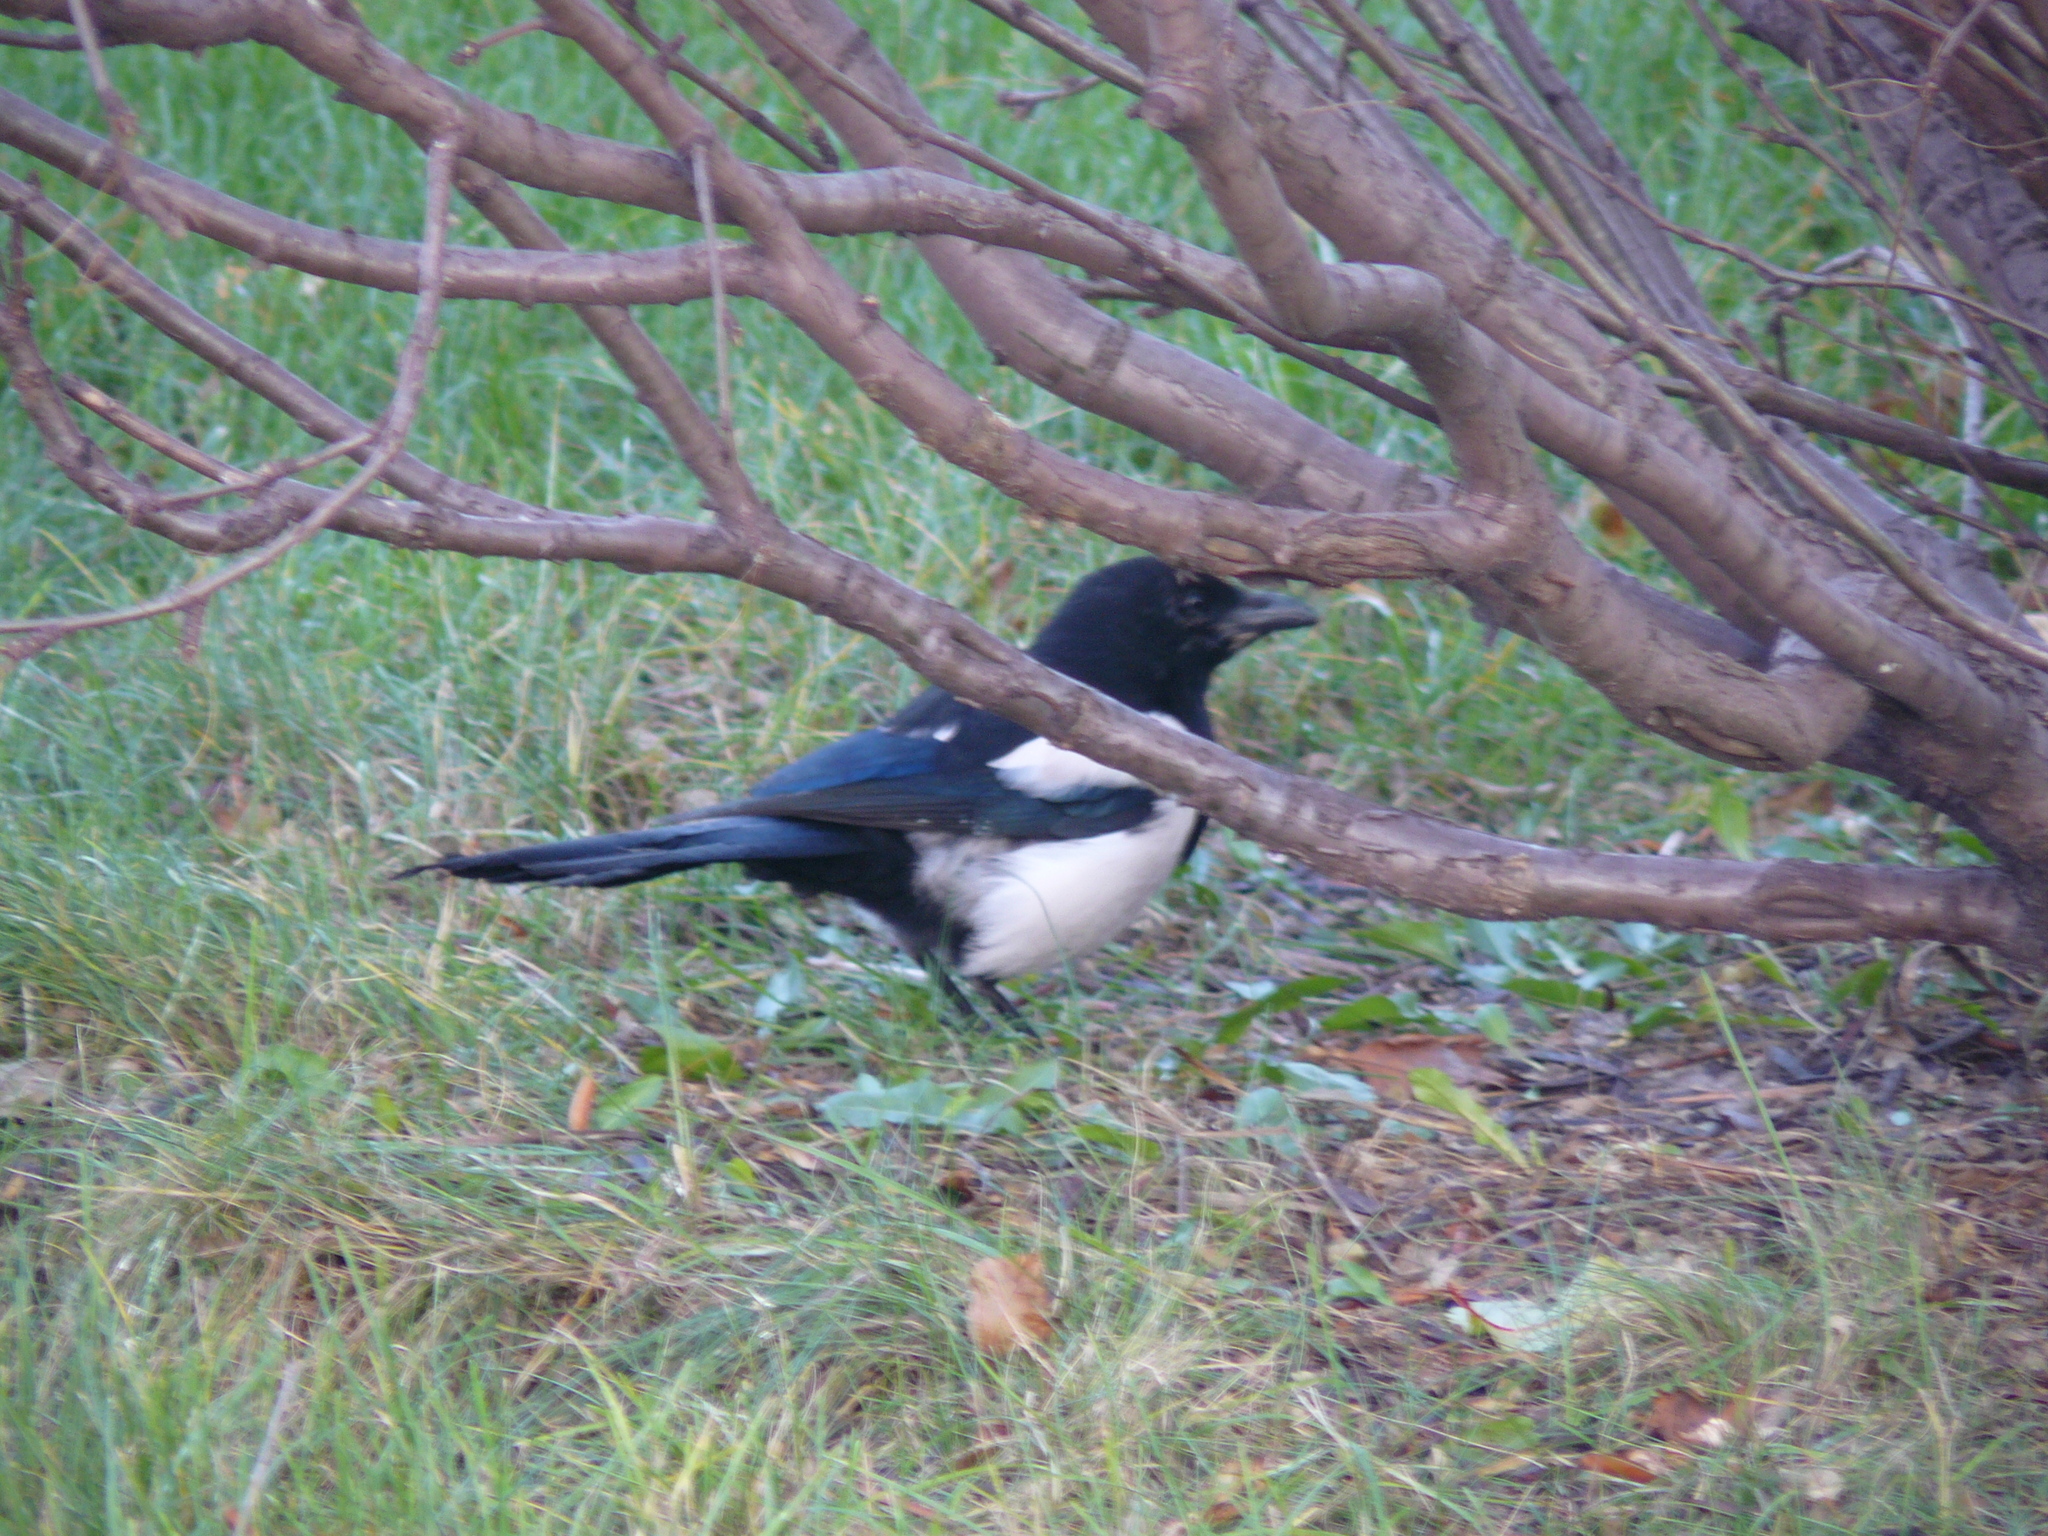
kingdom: Animalia
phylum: Chordata
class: Aves
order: Passeriformes
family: Corvidae
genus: Pica
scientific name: Pica pica
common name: Eurasian magpie
